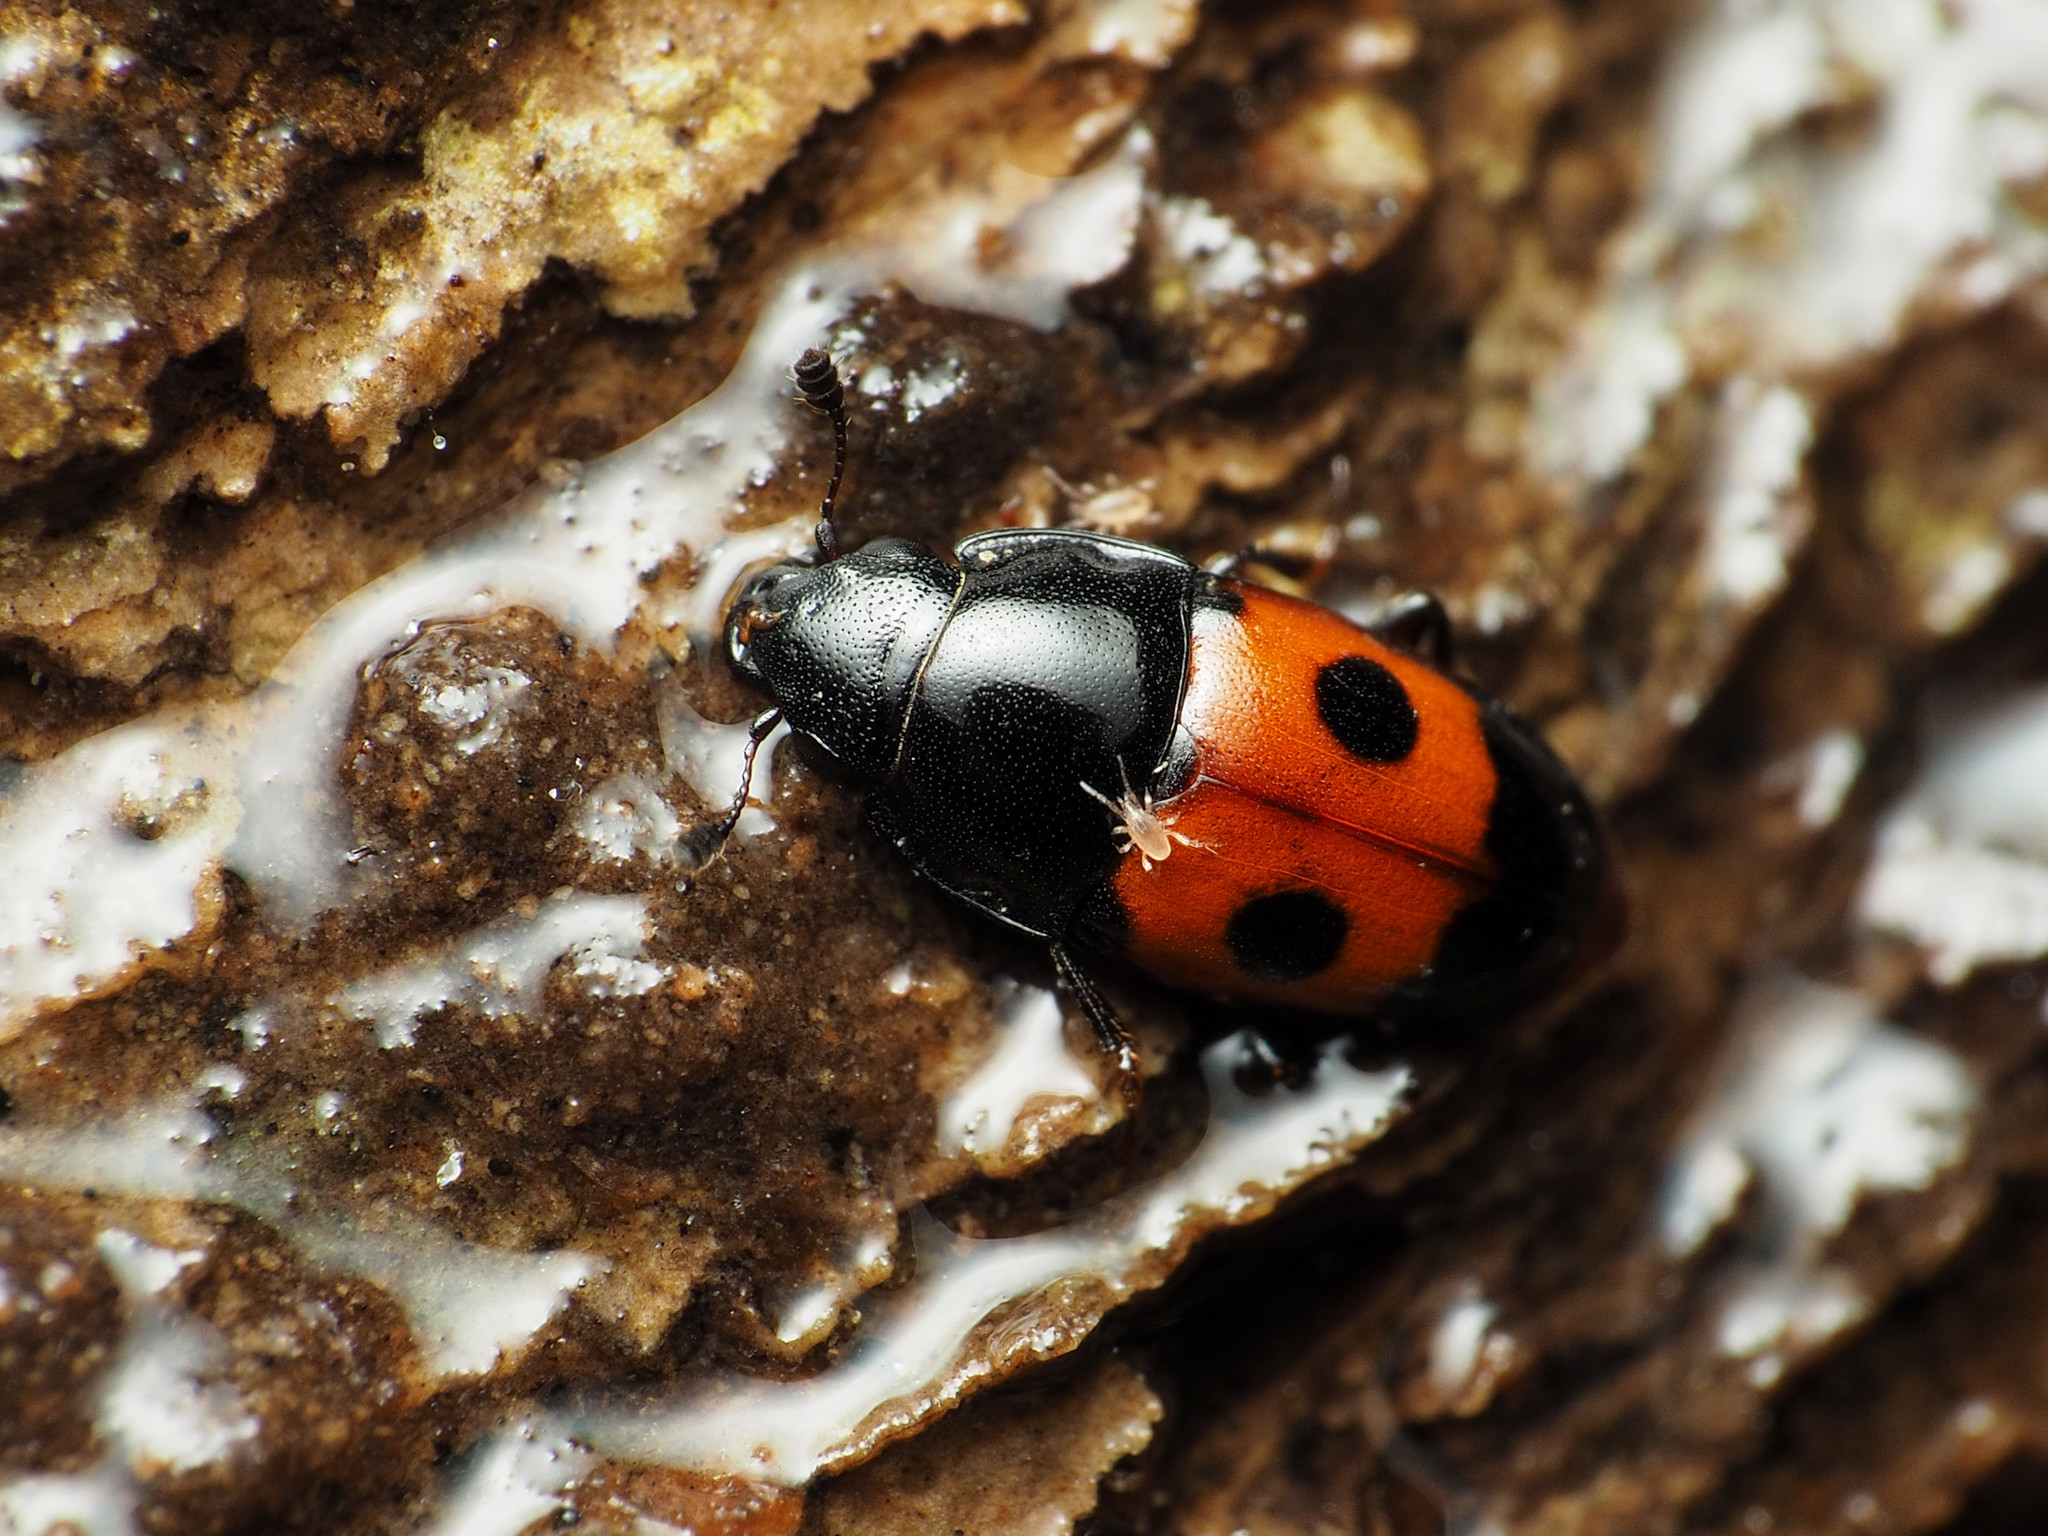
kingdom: Animalia
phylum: Arthropoda
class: Insecta
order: Coleoptera
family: Nitidulidae
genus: Glischrochilus
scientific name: Glischrochilus sanguinolentus
